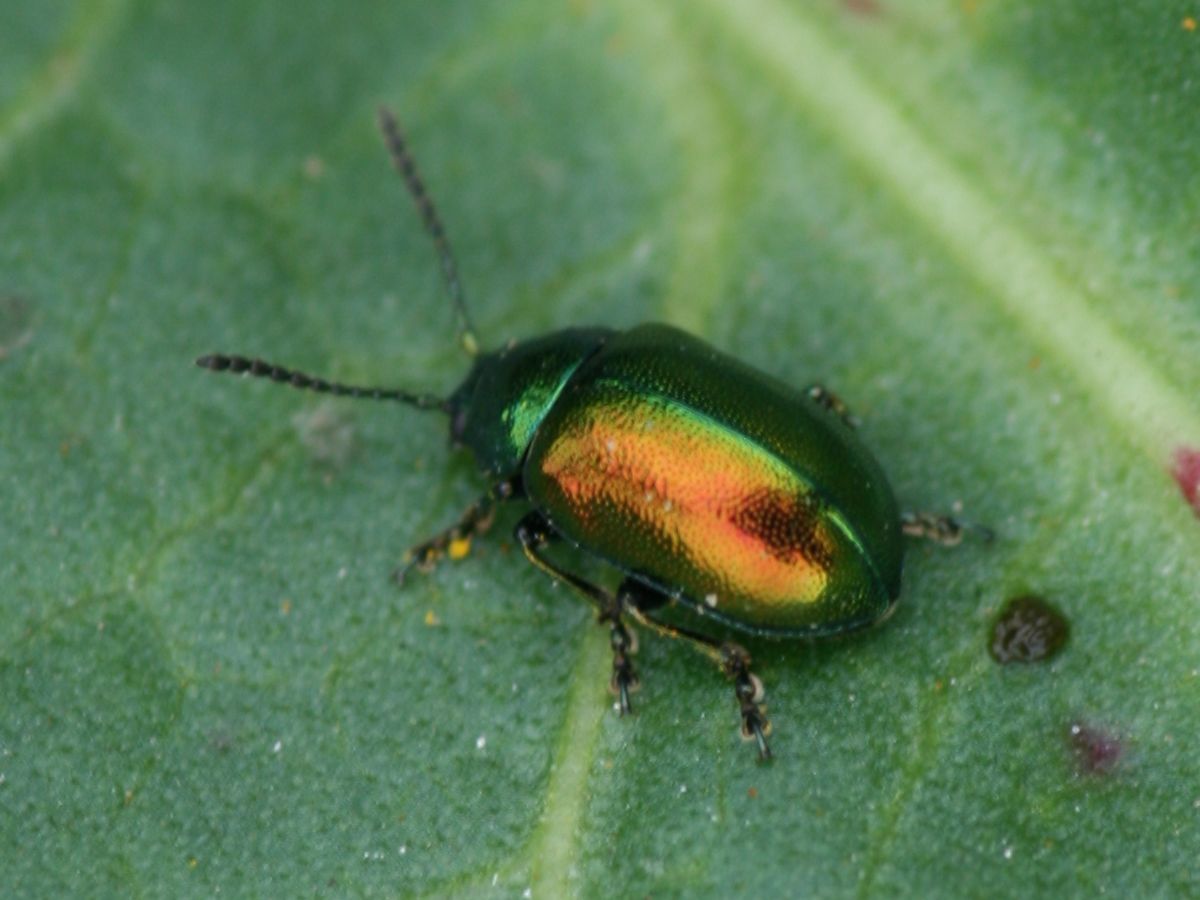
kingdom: Animalia
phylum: Arthropoda
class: Insecta
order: Coleoptera
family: Chrysomelidae
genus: Gastrophysa
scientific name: Gastrophysa viridula
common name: Green dock beetle
